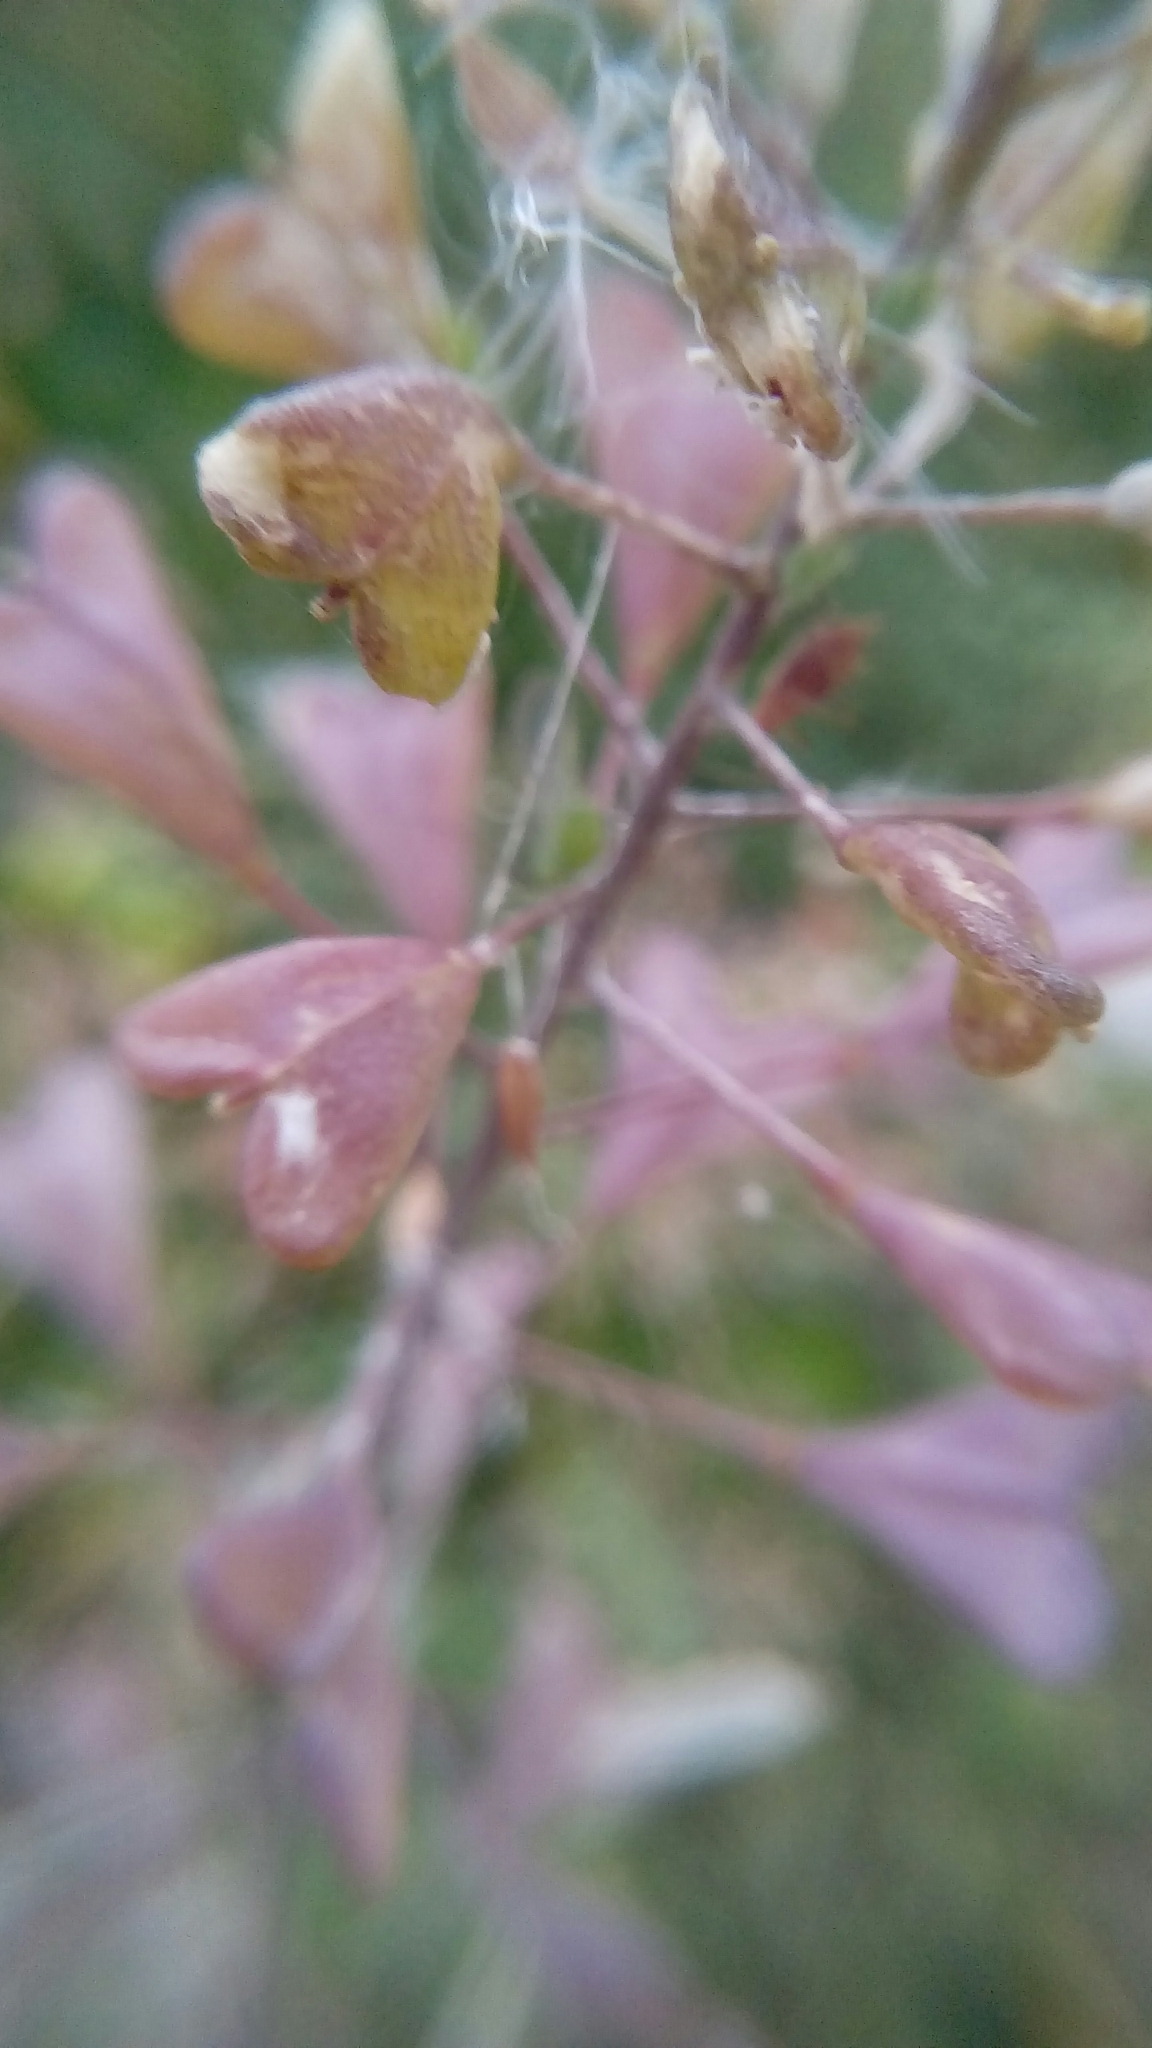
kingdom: Plantae
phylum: Tracheophyta
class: Magnoliopsida
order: Brassicales
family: Brassicaceae
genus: Capsella
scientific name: Capsella bursa-pastoris
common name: Shepherd's purse
